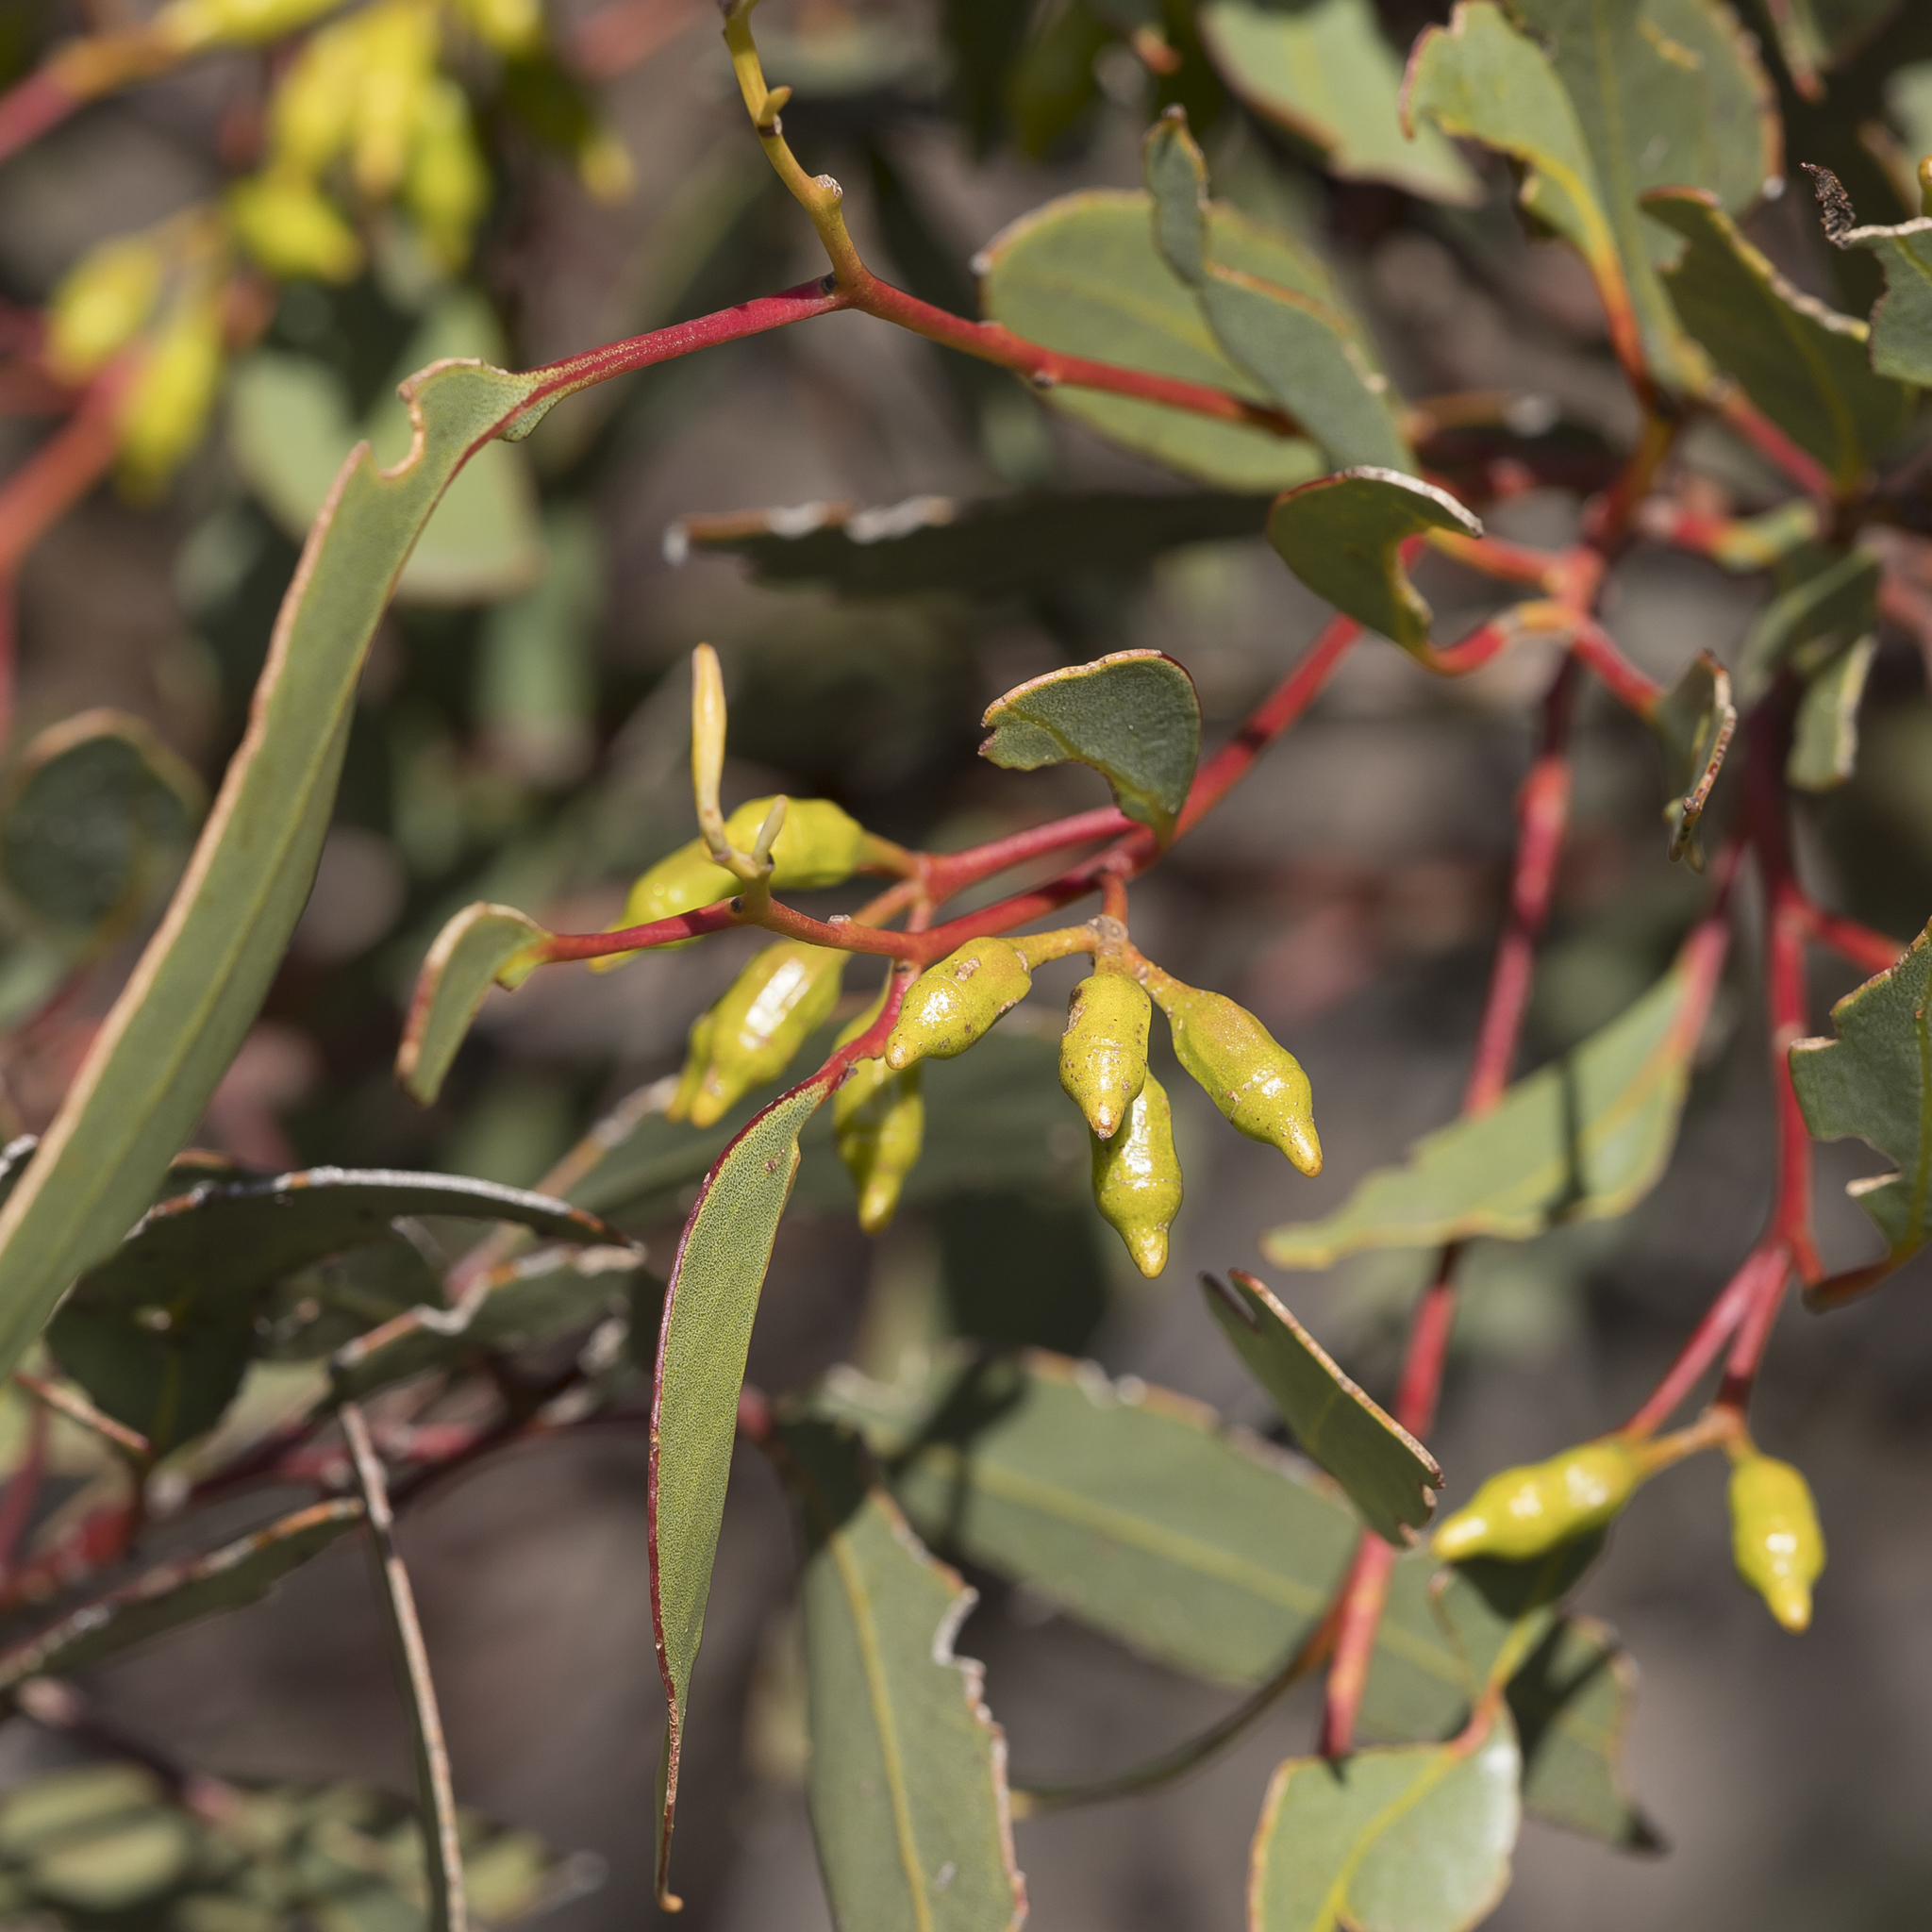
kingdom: Plantae
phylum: Tracheophyta
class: Magnoliopsida
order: Myrtales
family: Myrtaceae
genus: Eucalyptus
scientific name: Eucalyptus incrassata
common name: Ridge-fruit mallee
